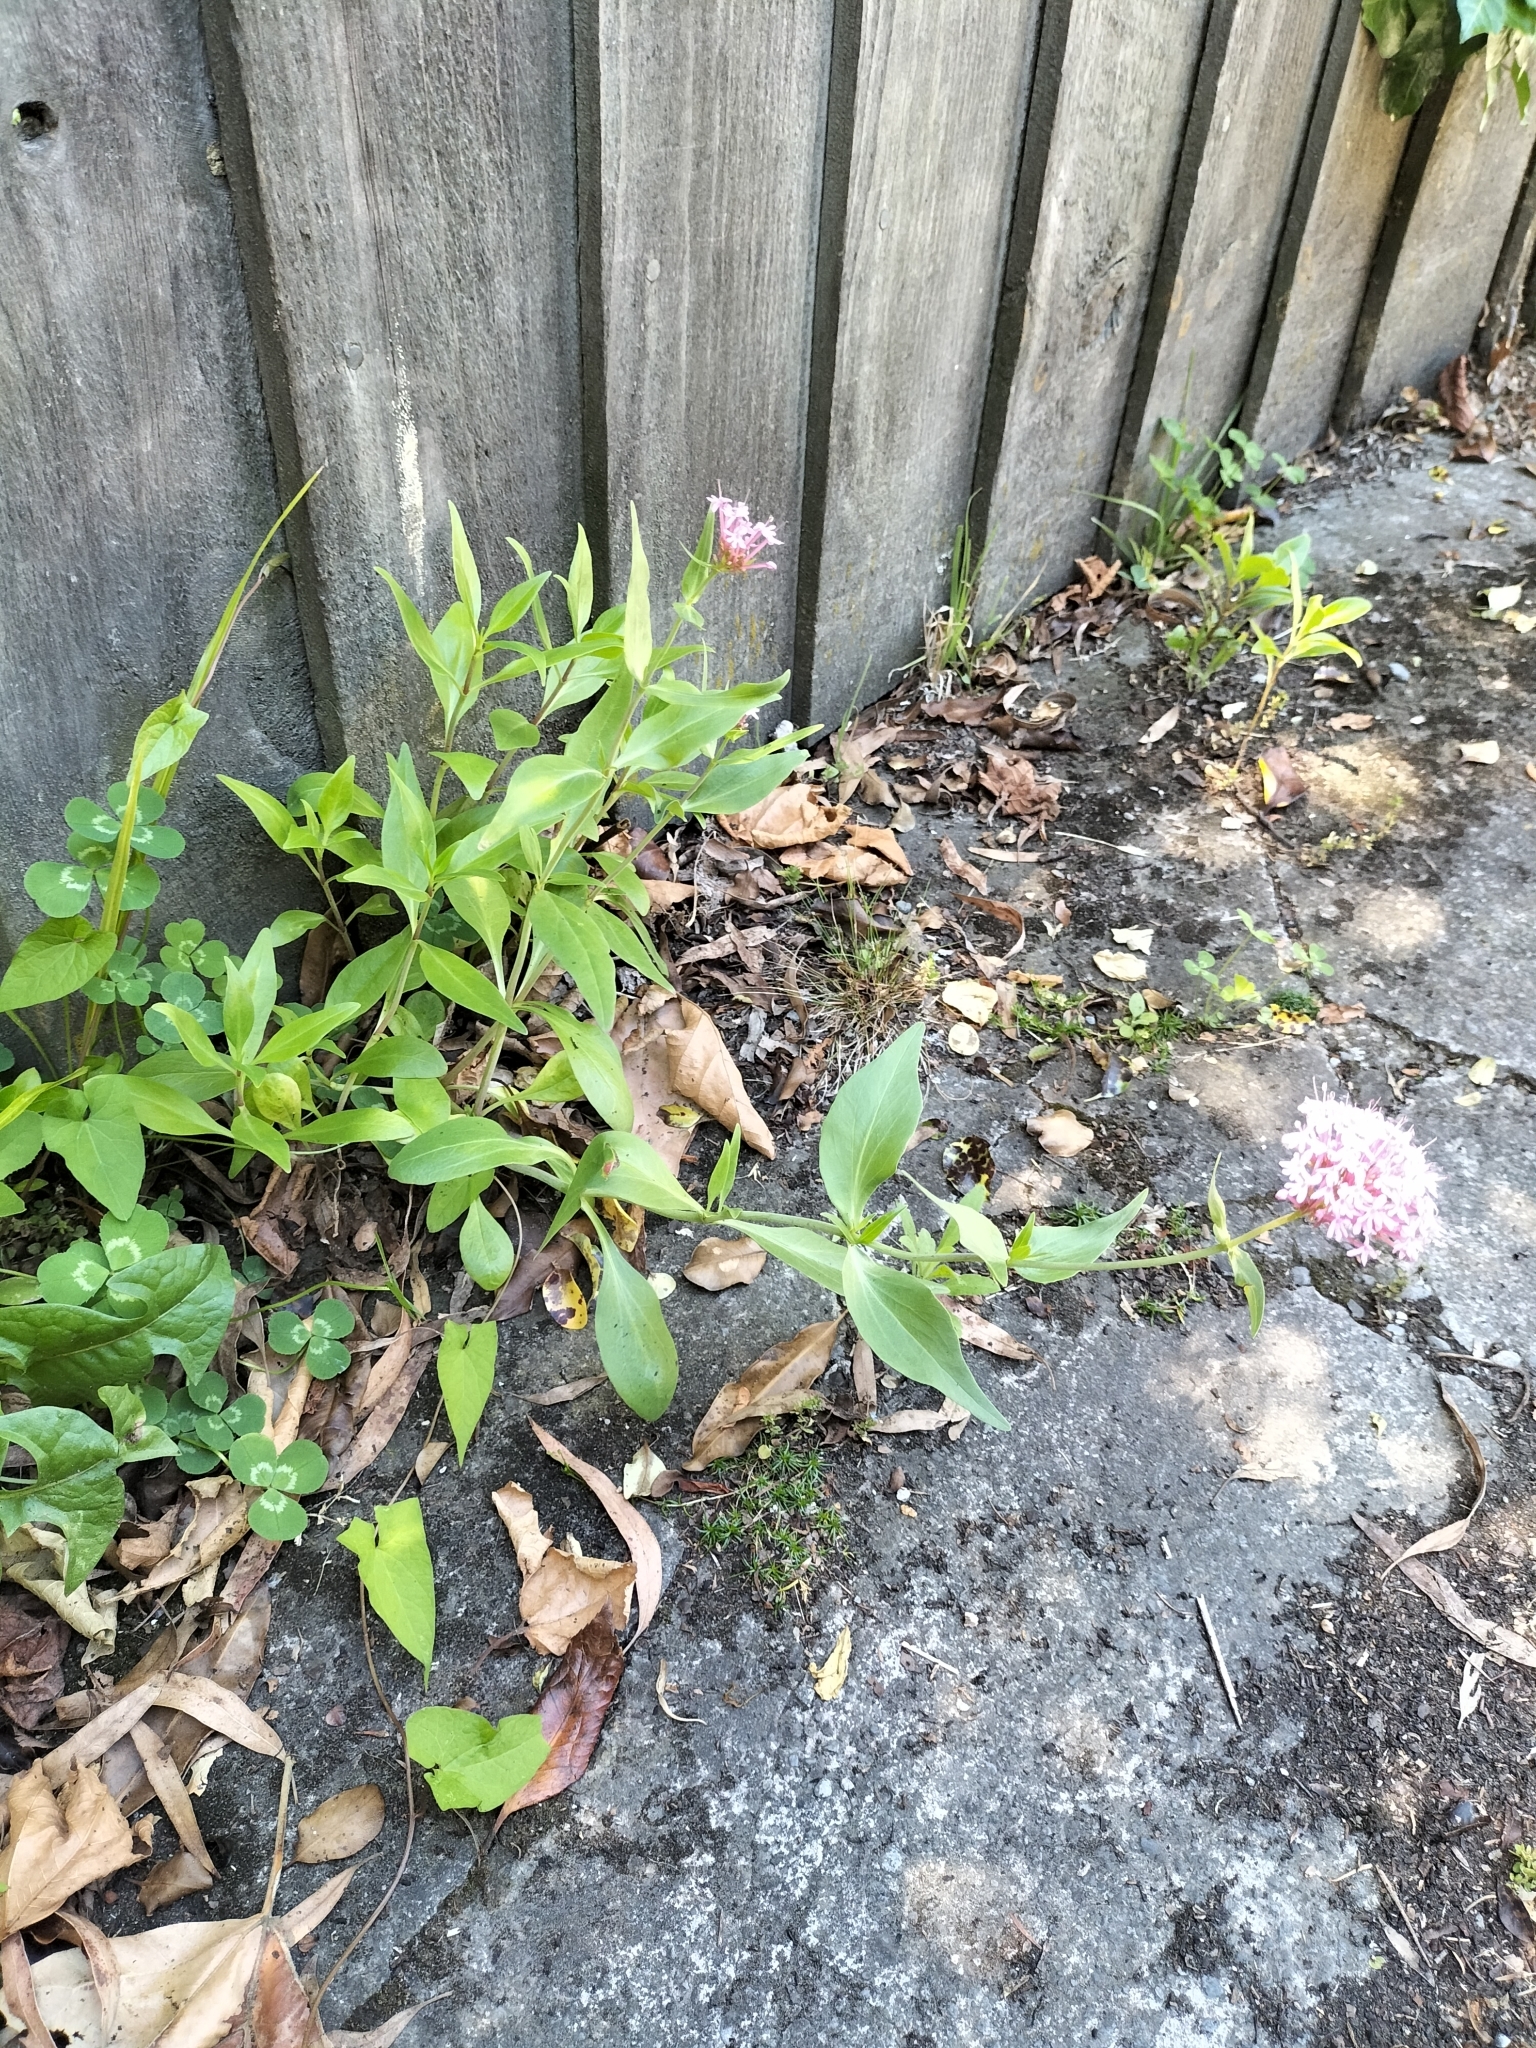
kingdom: Plantae
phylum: Tracheophyta
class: Magnoliopsida
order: Dipsacales
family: Caprifoliaceae
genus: Centranthus
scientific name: Centranthus ruber
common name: Red valerian
